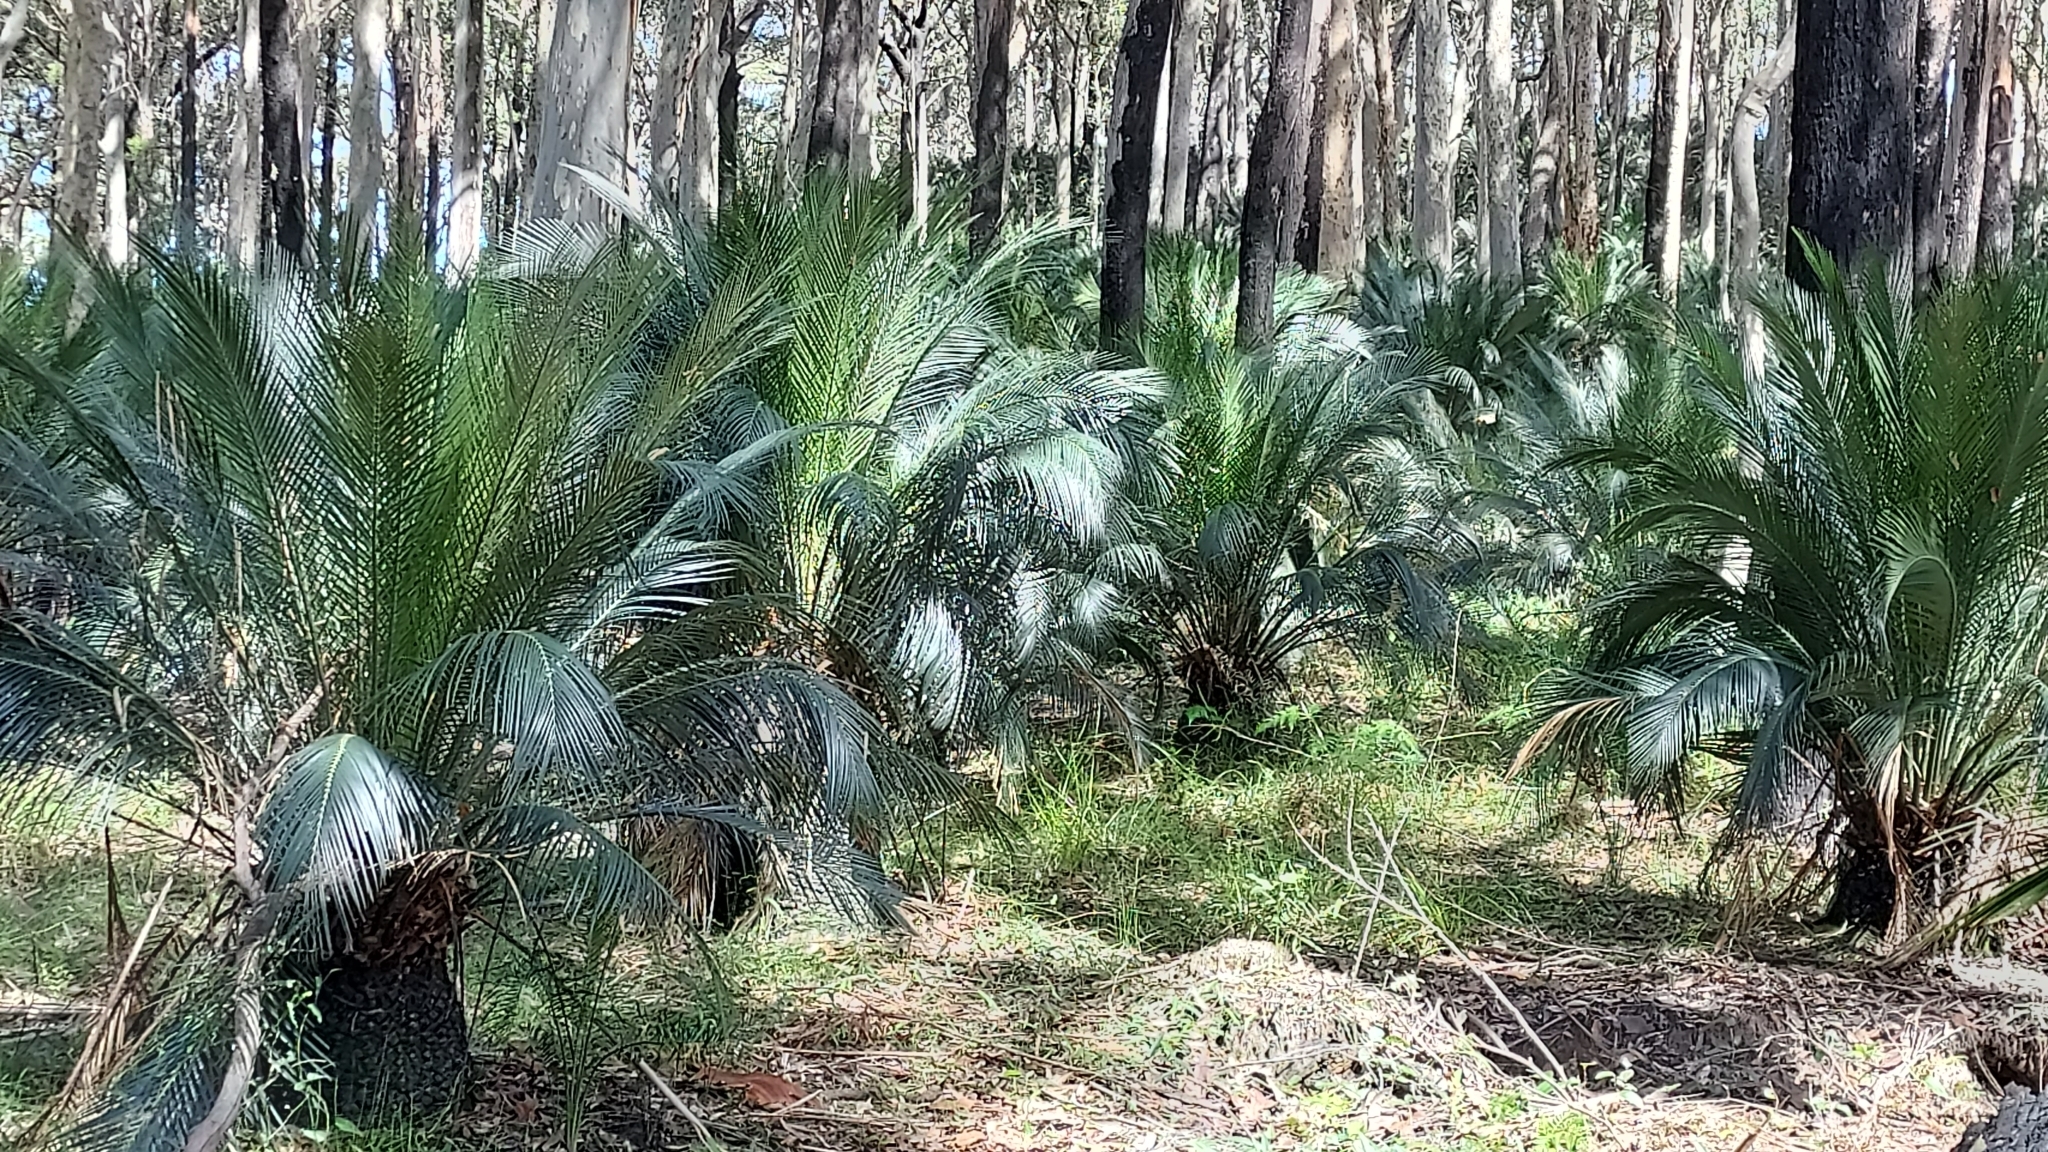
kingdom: Plantae
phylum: Tracheophyta
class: Cycadopsida
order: Cycadales
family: Zamiaceae
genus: Macrozamia
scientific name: Macrozamia communis
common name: Burrawong
